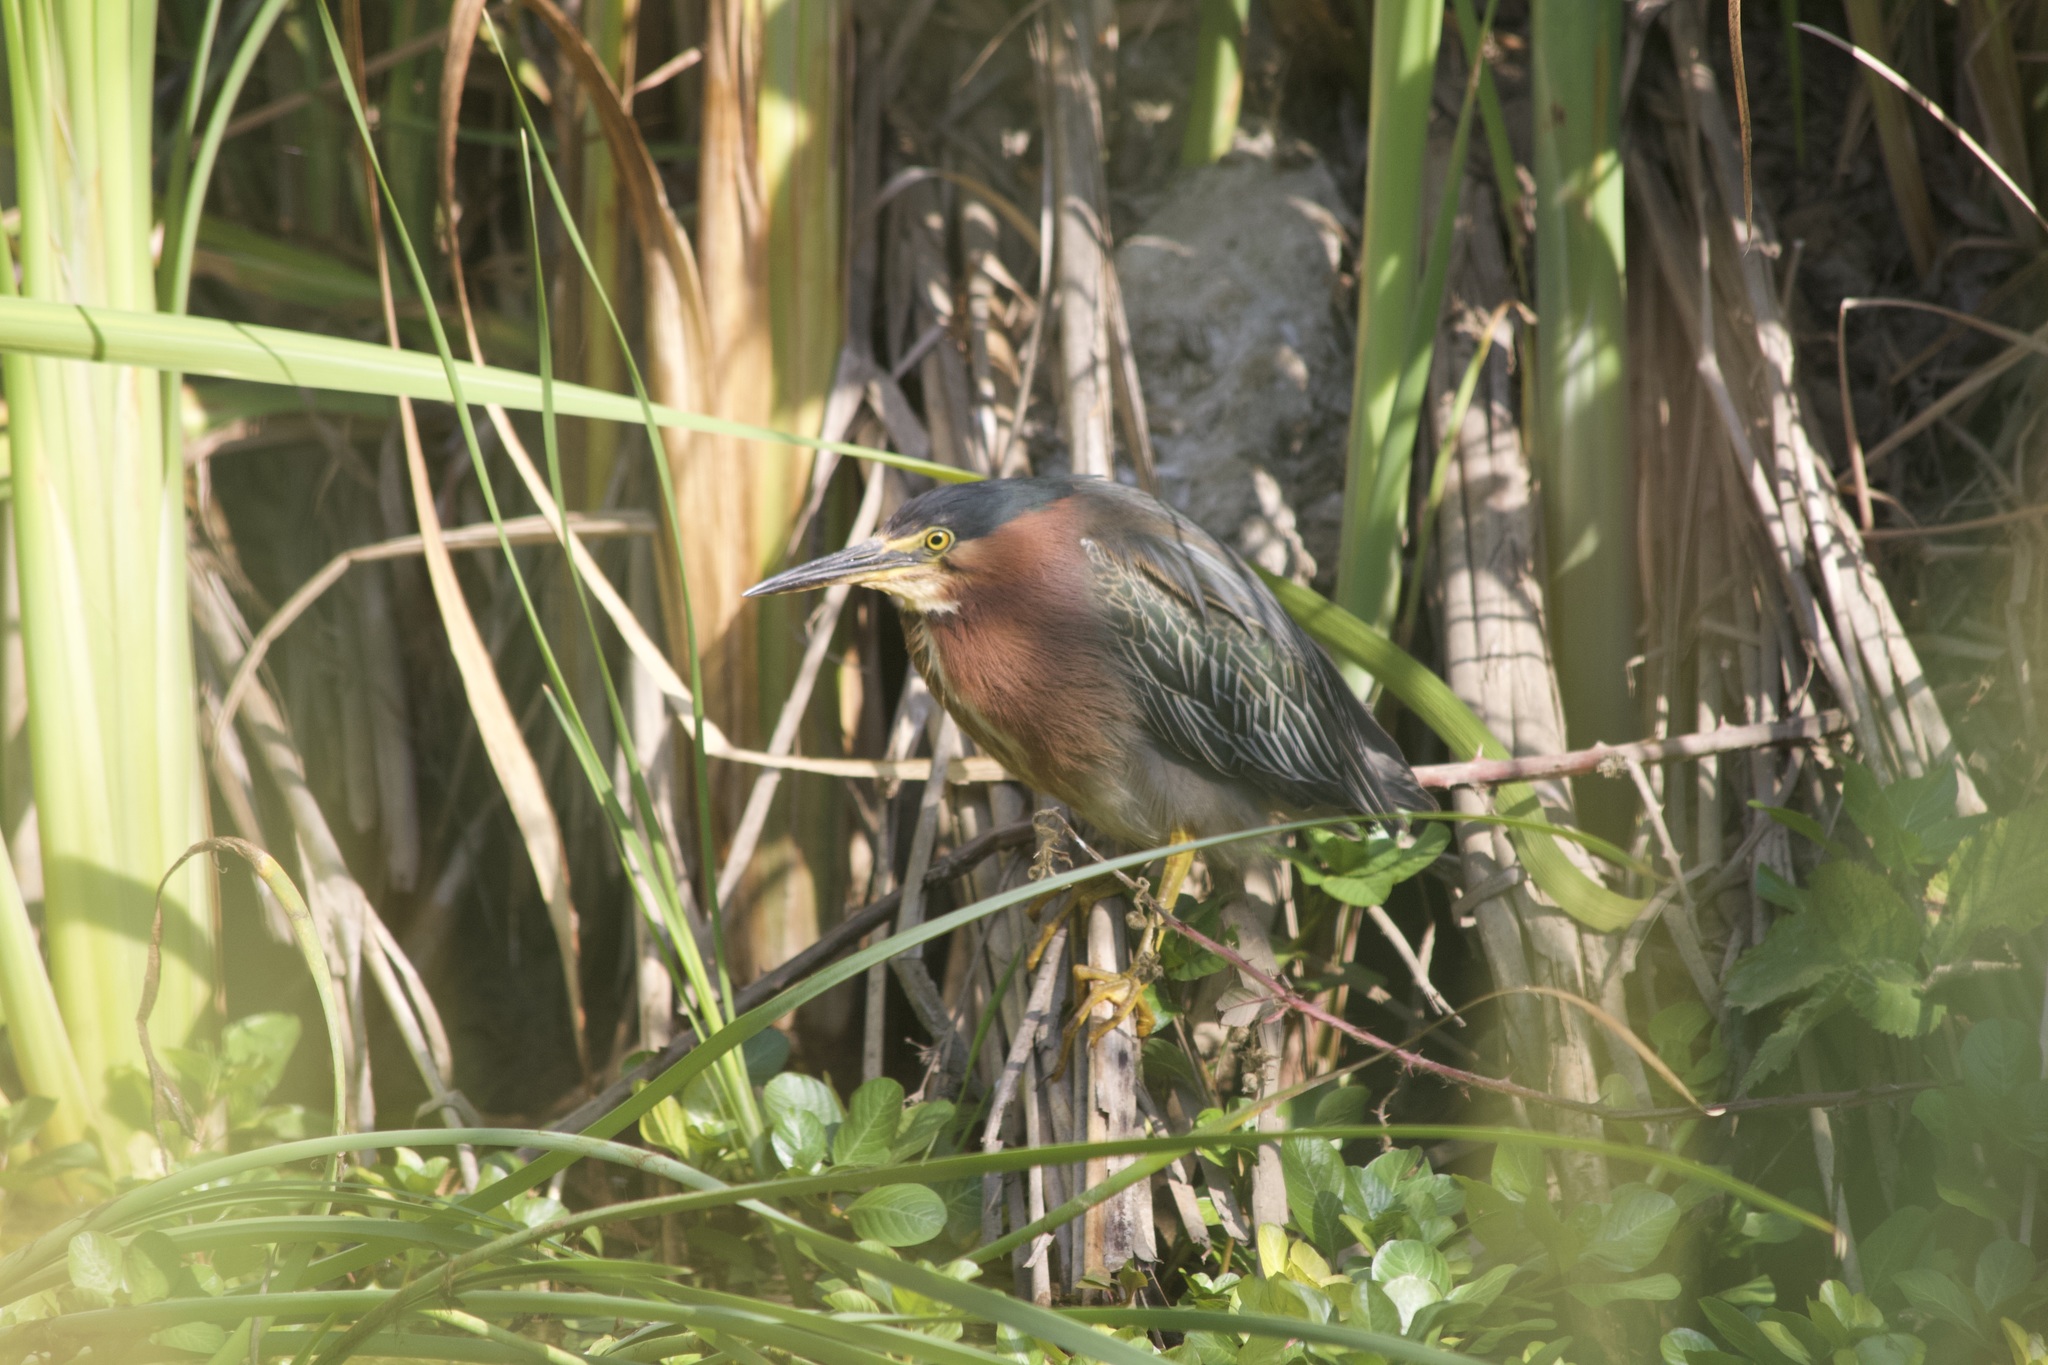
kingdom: Animalia
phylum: Chordata
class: Aves
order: Pelecaniformes
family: Ardeidae
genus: Butorides
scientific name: Butorides virescens
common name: Green heron
